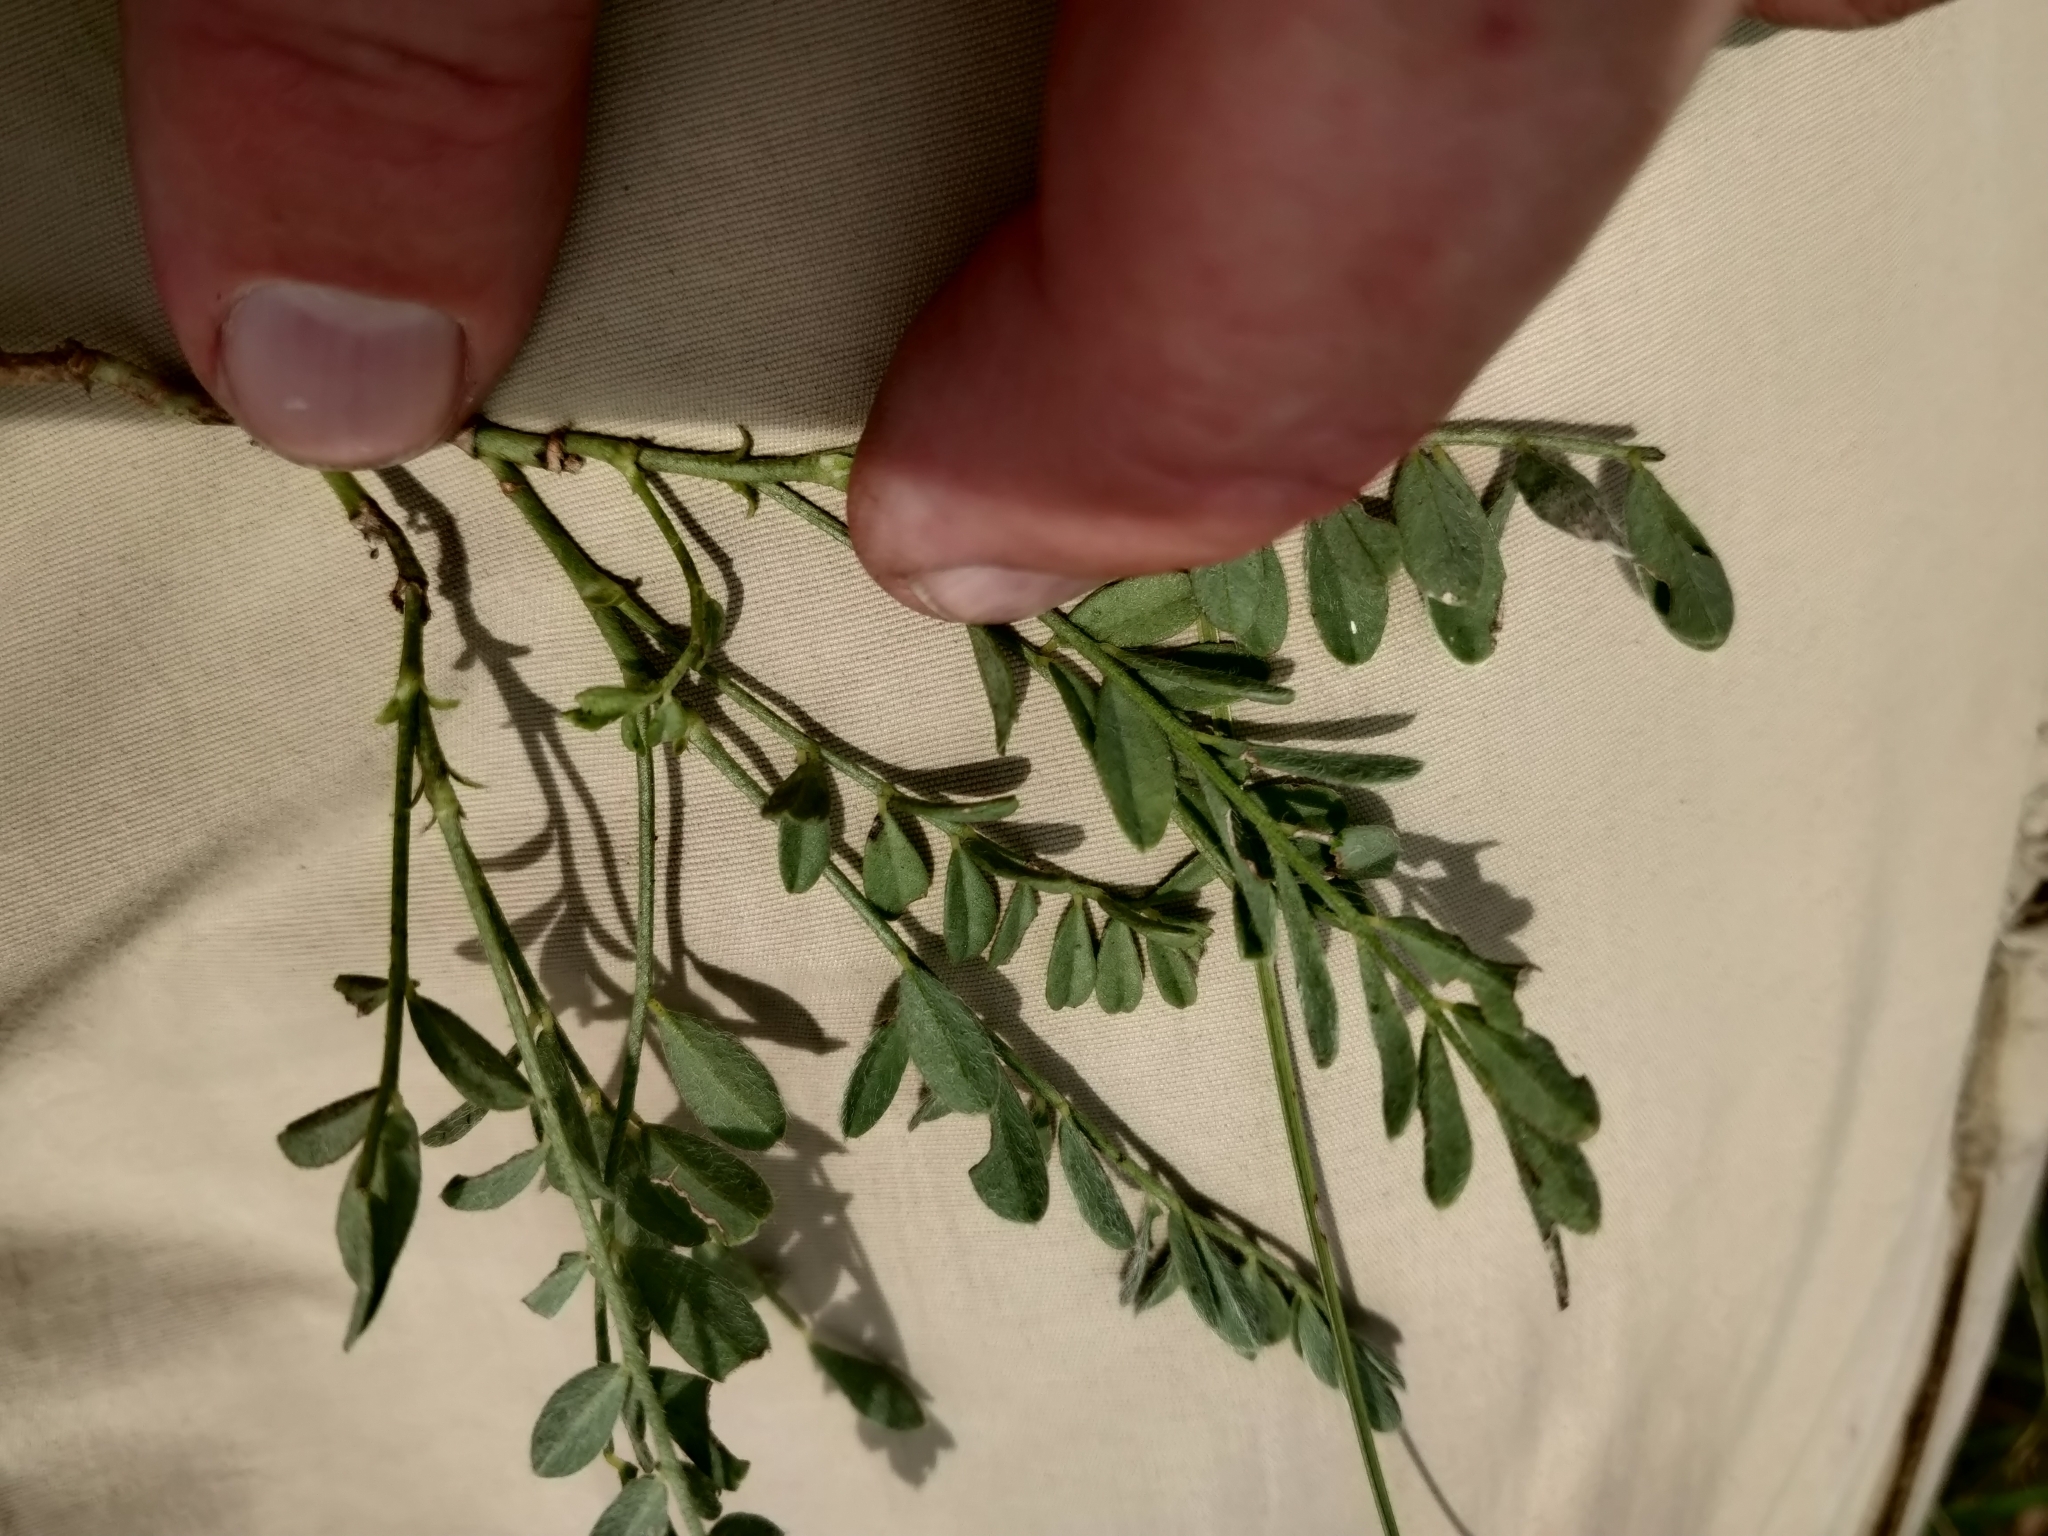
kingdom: Plantae
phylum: Tracheophyta
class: Magnoliopsida
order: Fabales
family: Fabaceae
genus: Astragalus
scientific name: Astragalus agrestis
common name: Field milk-vetch
